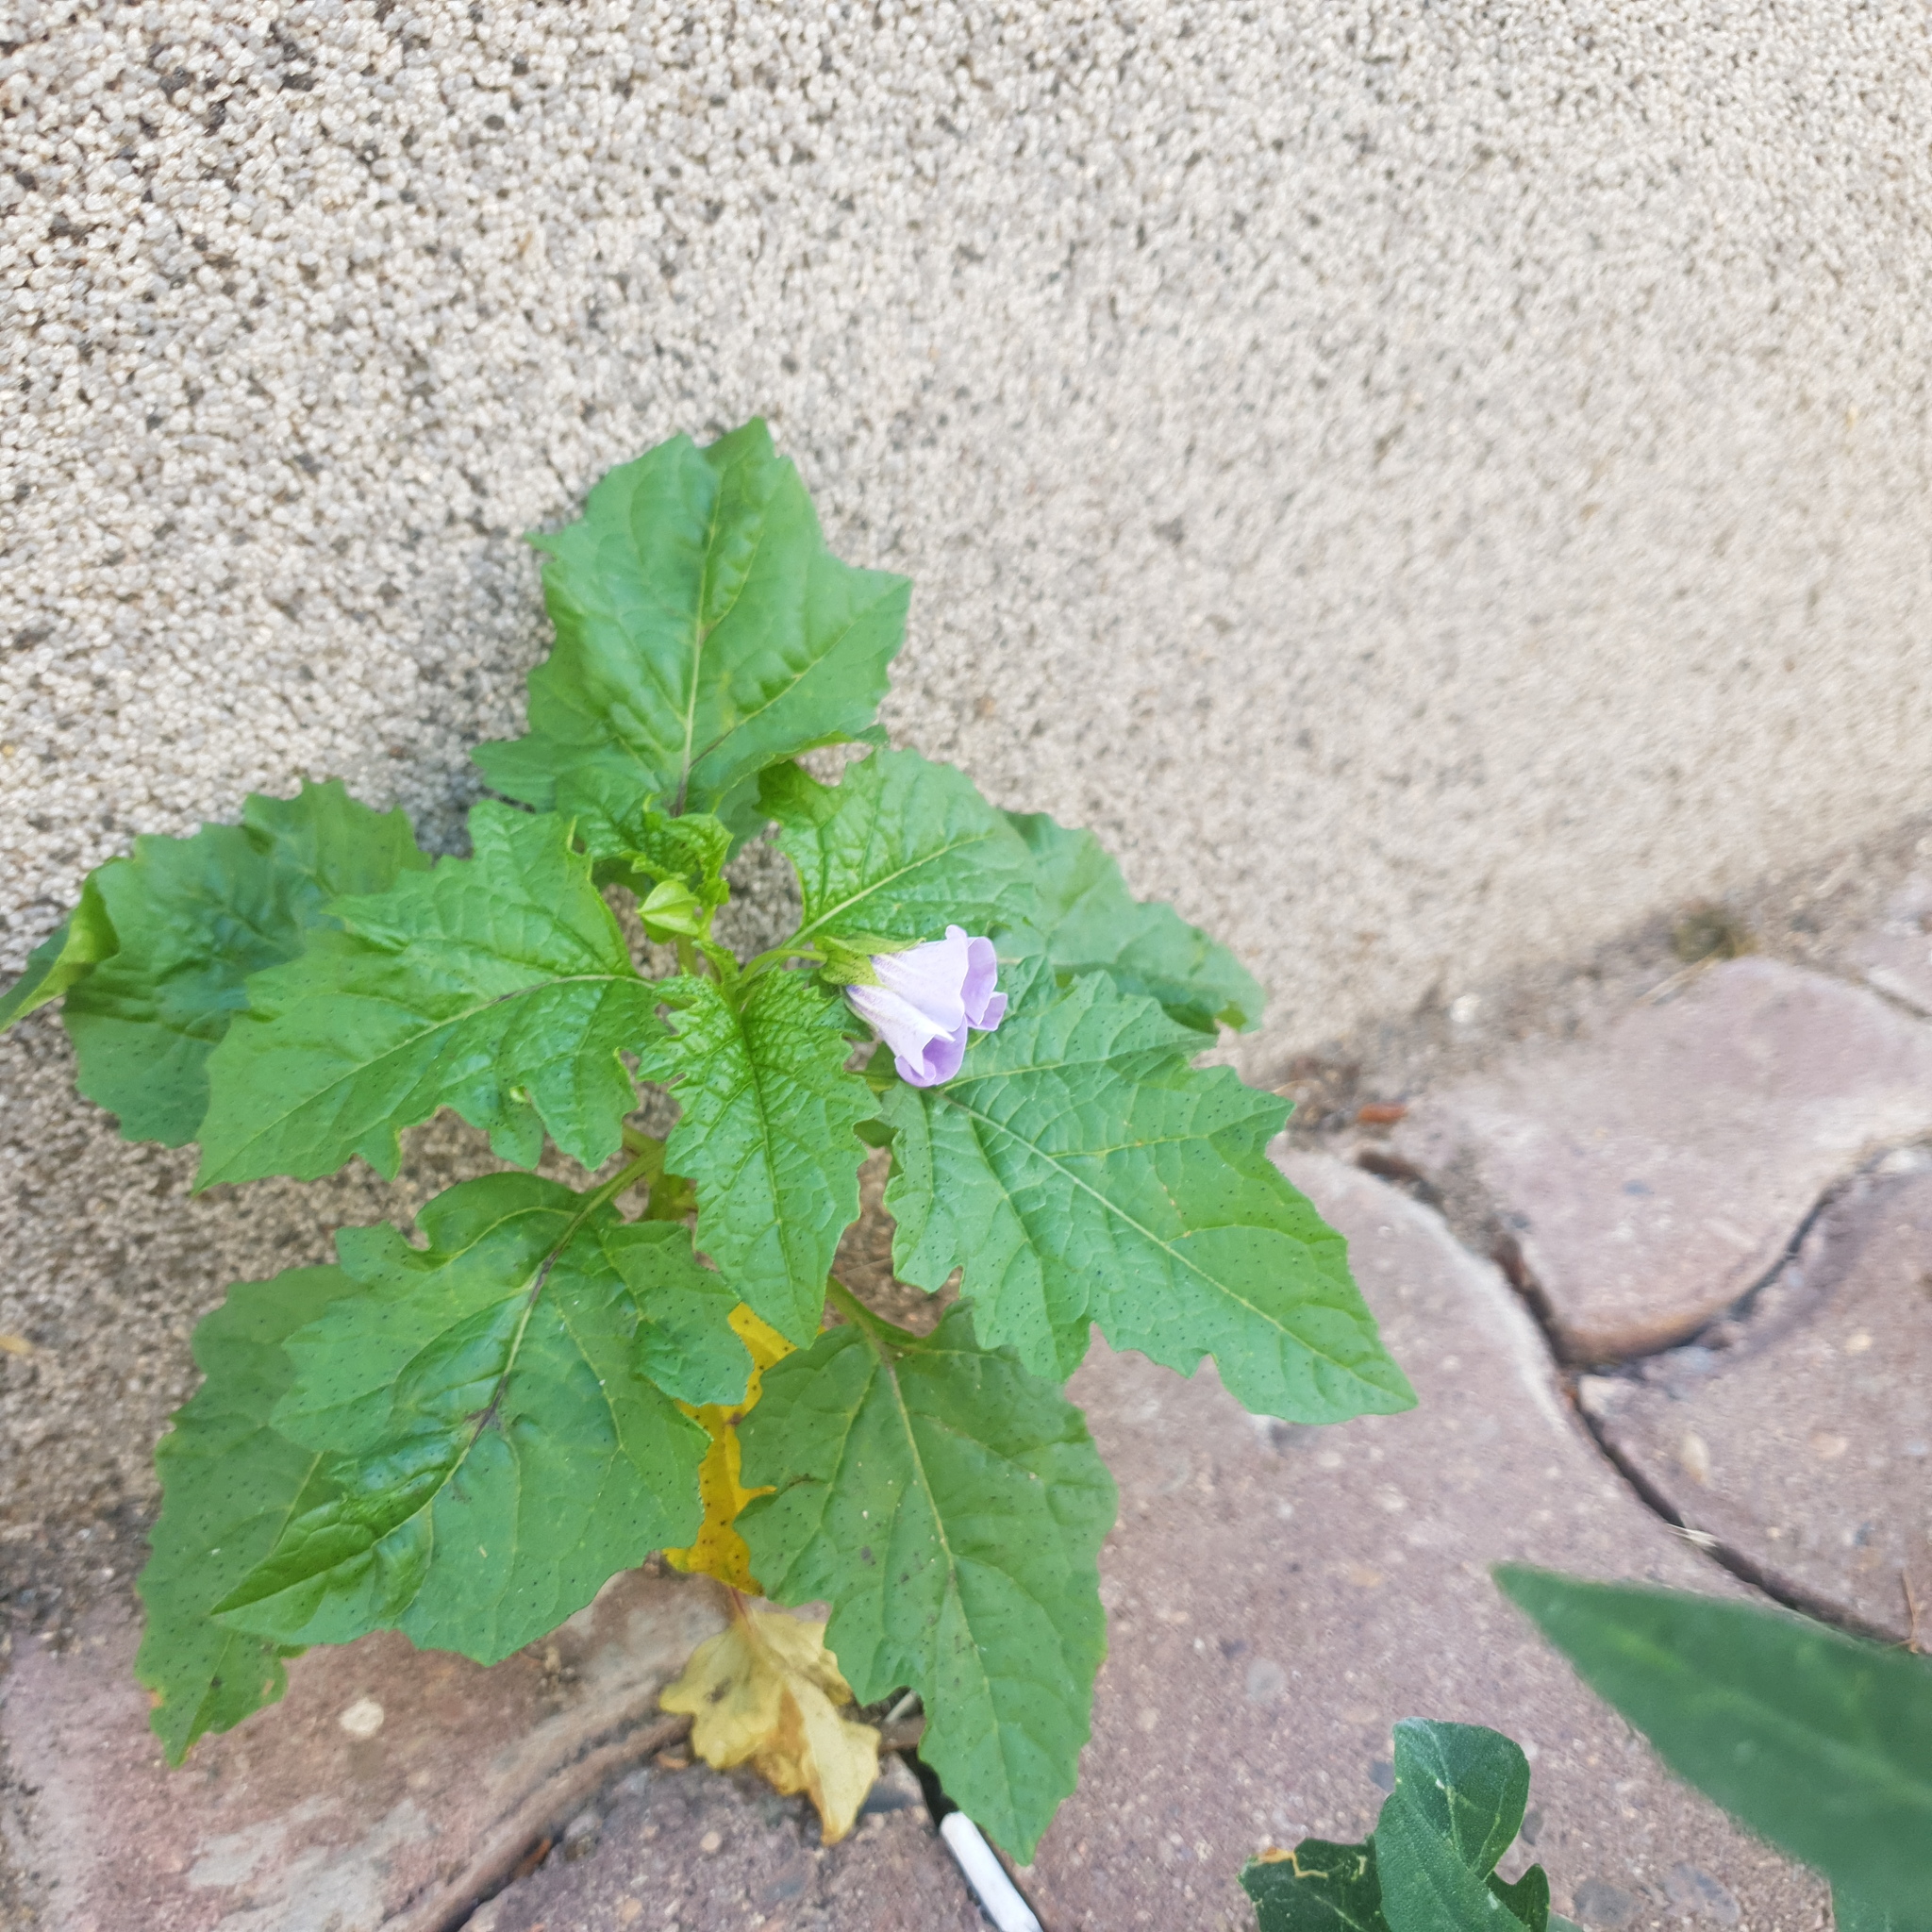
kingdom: Plantae
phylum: Tracheophyta
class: Magnoliopsida
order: Solanales
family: Solanaceae
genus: Nicandra
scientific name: Nicandra physalodes
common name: Apple-of-peru
